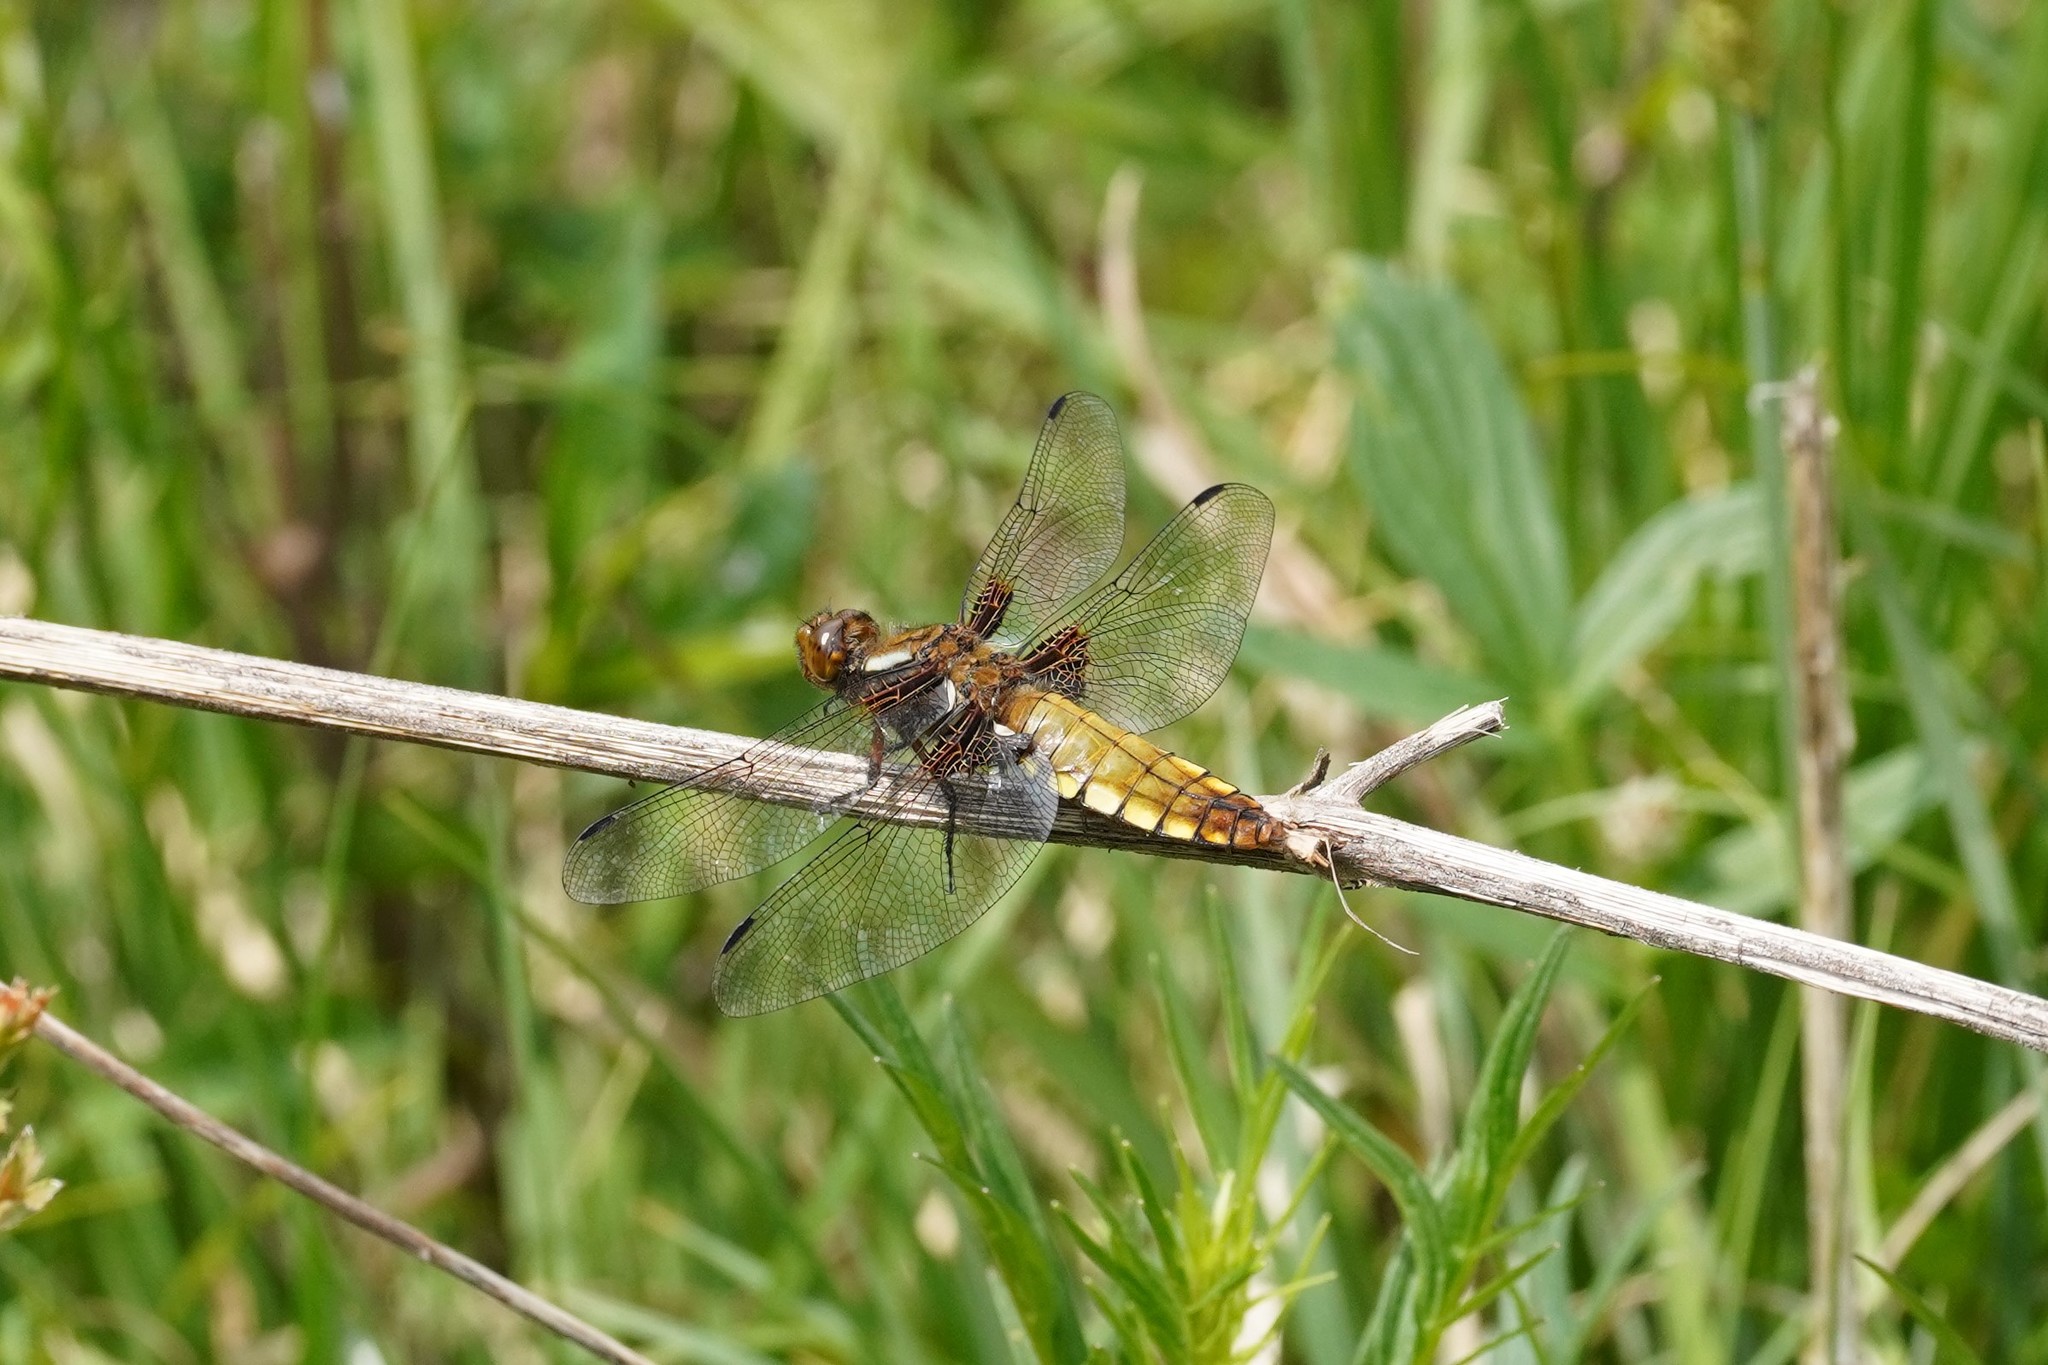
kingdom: Animalia
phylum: Arthropoda
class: Insecta
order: Odonata
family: Libellulidae
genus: Libellula
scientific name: Libellula depressa
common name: Broad-bodied chaser
